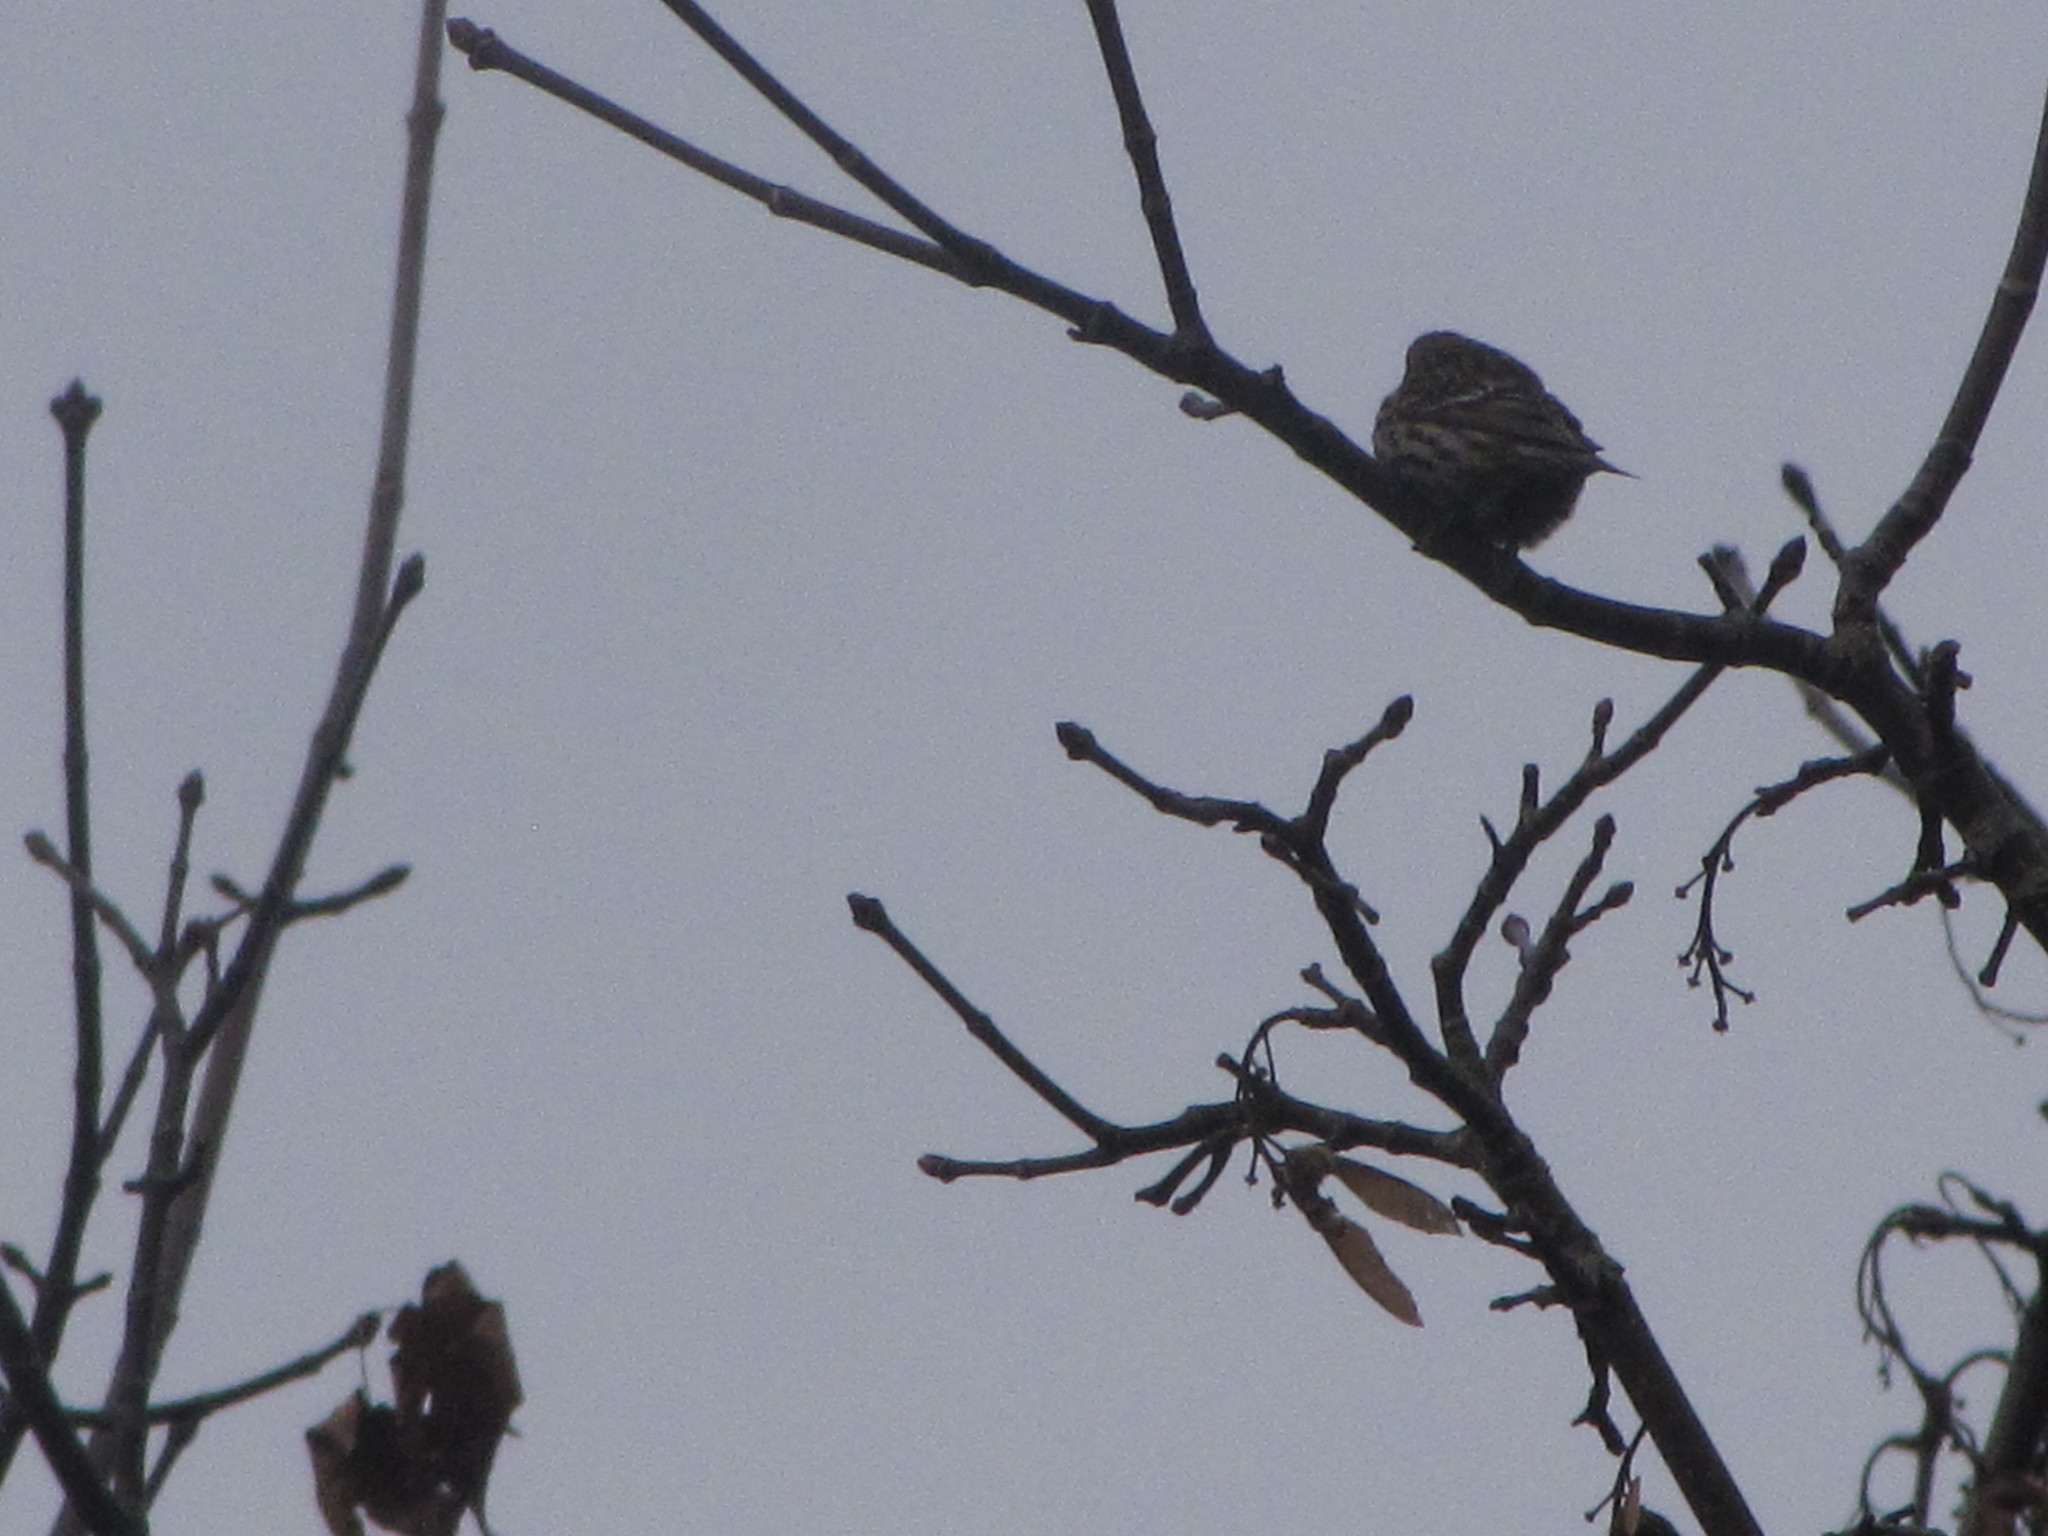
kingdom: Animalia
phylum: Chordata
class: Aves
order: Passeriformes
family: Fringillidae
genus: Spinus
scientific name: Spinus pinus
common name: Pine siskin
